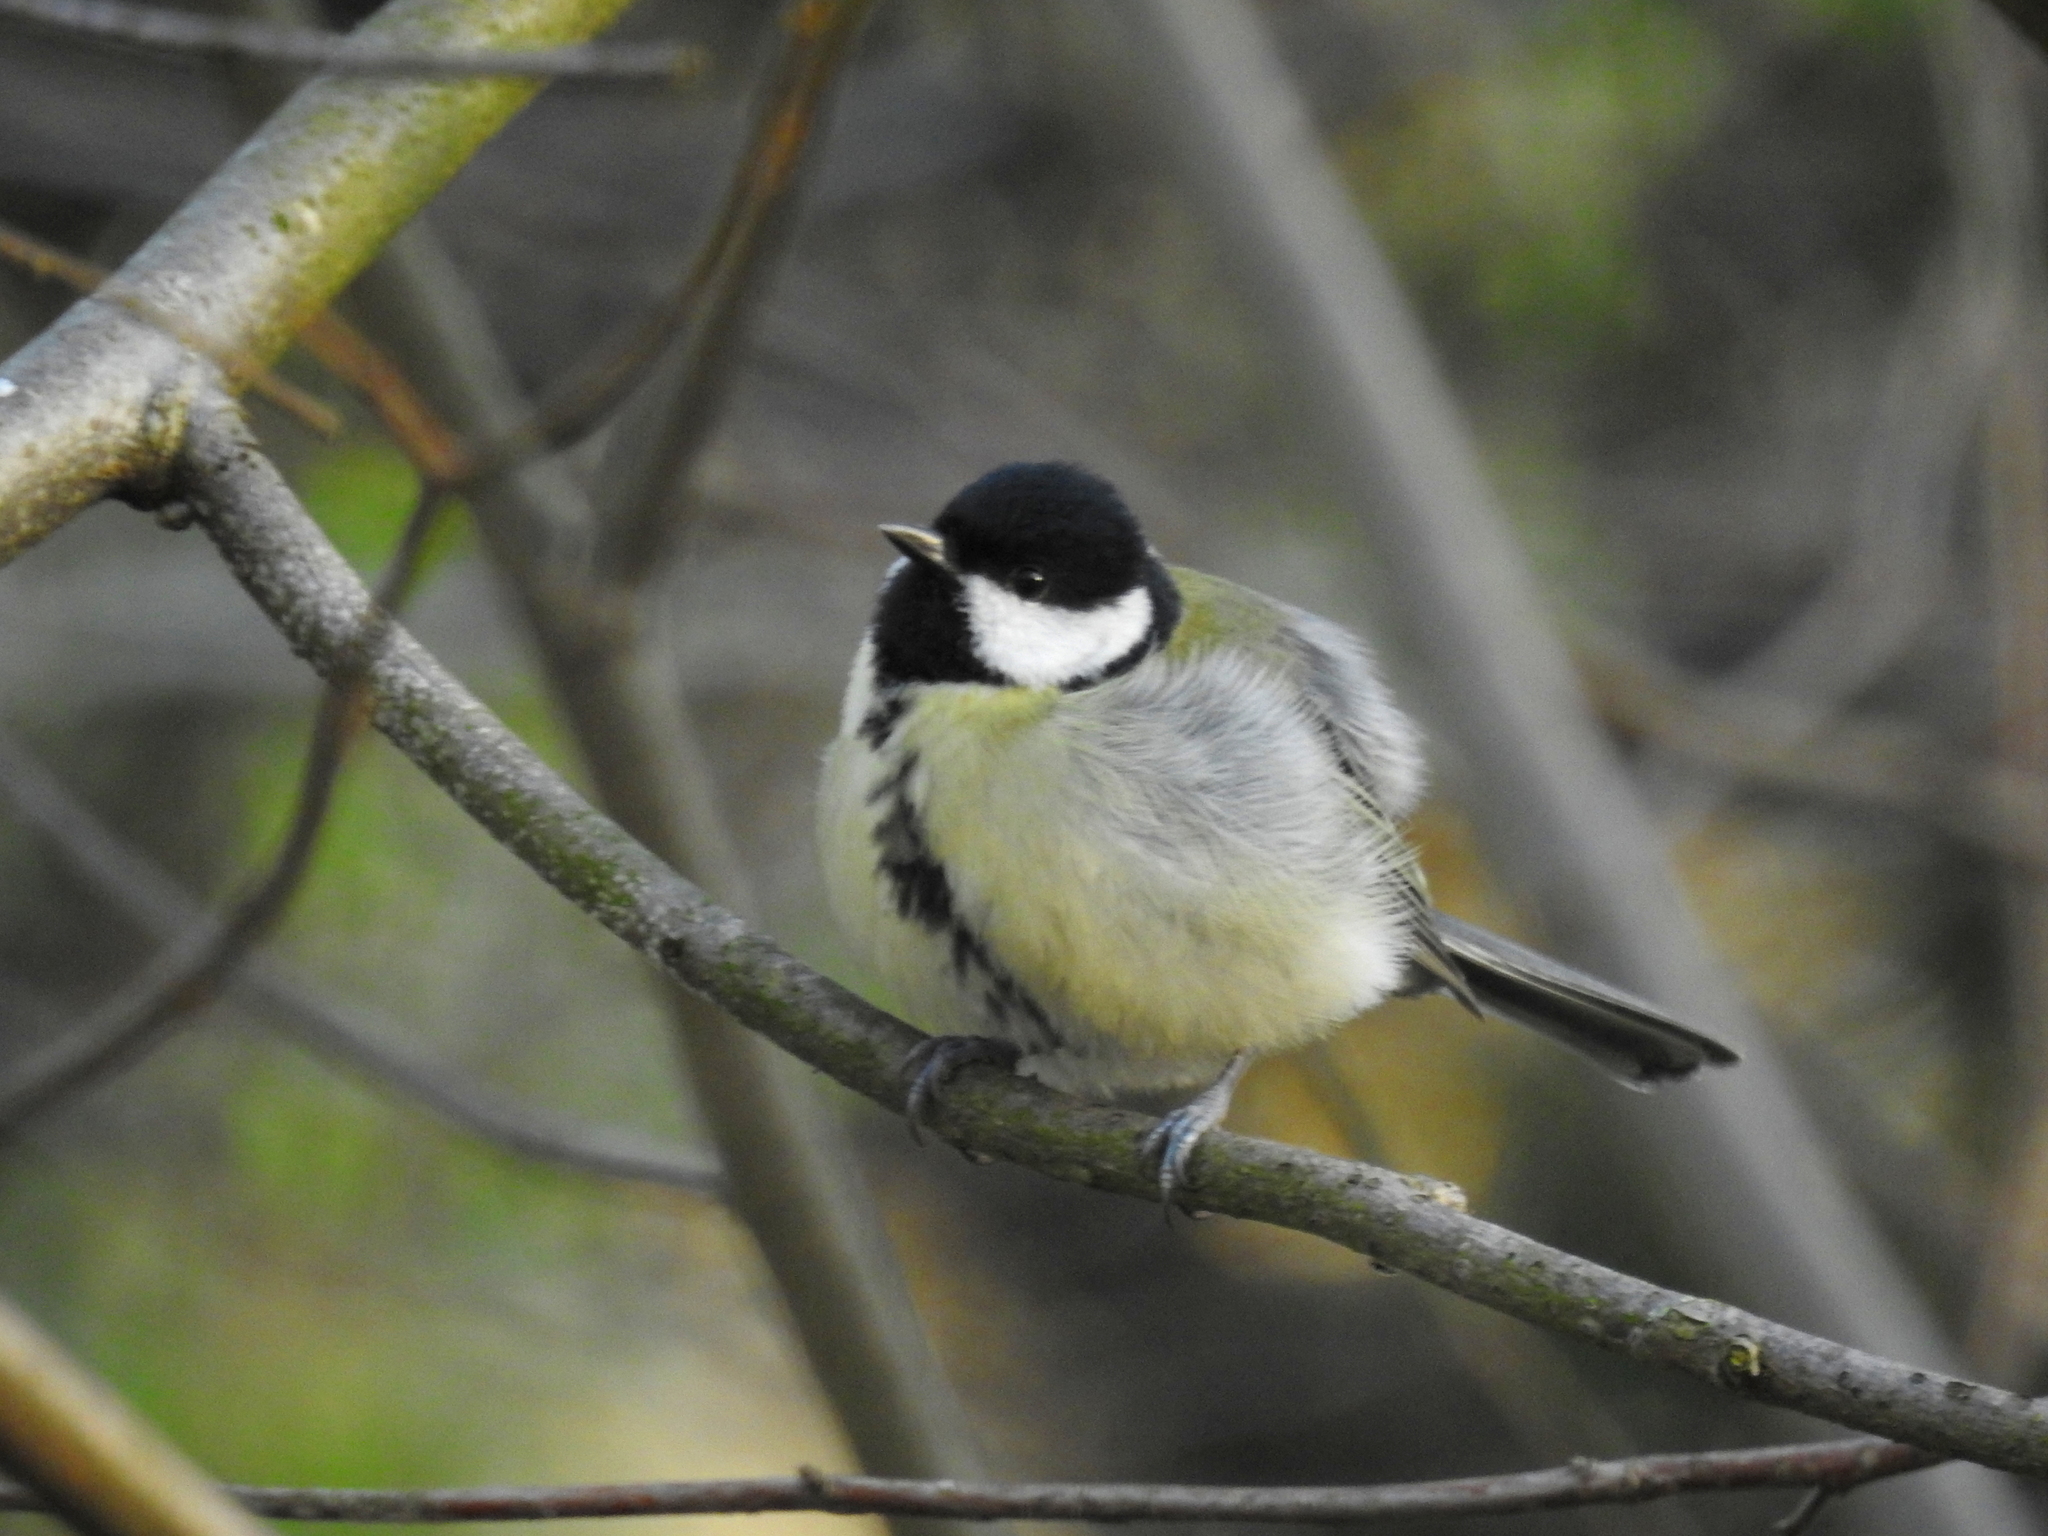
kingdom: Animalia
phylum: Chordata
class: Aves
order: Passeriformes
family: Paridae
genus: Parus
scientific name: Parus major
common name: Great tit
